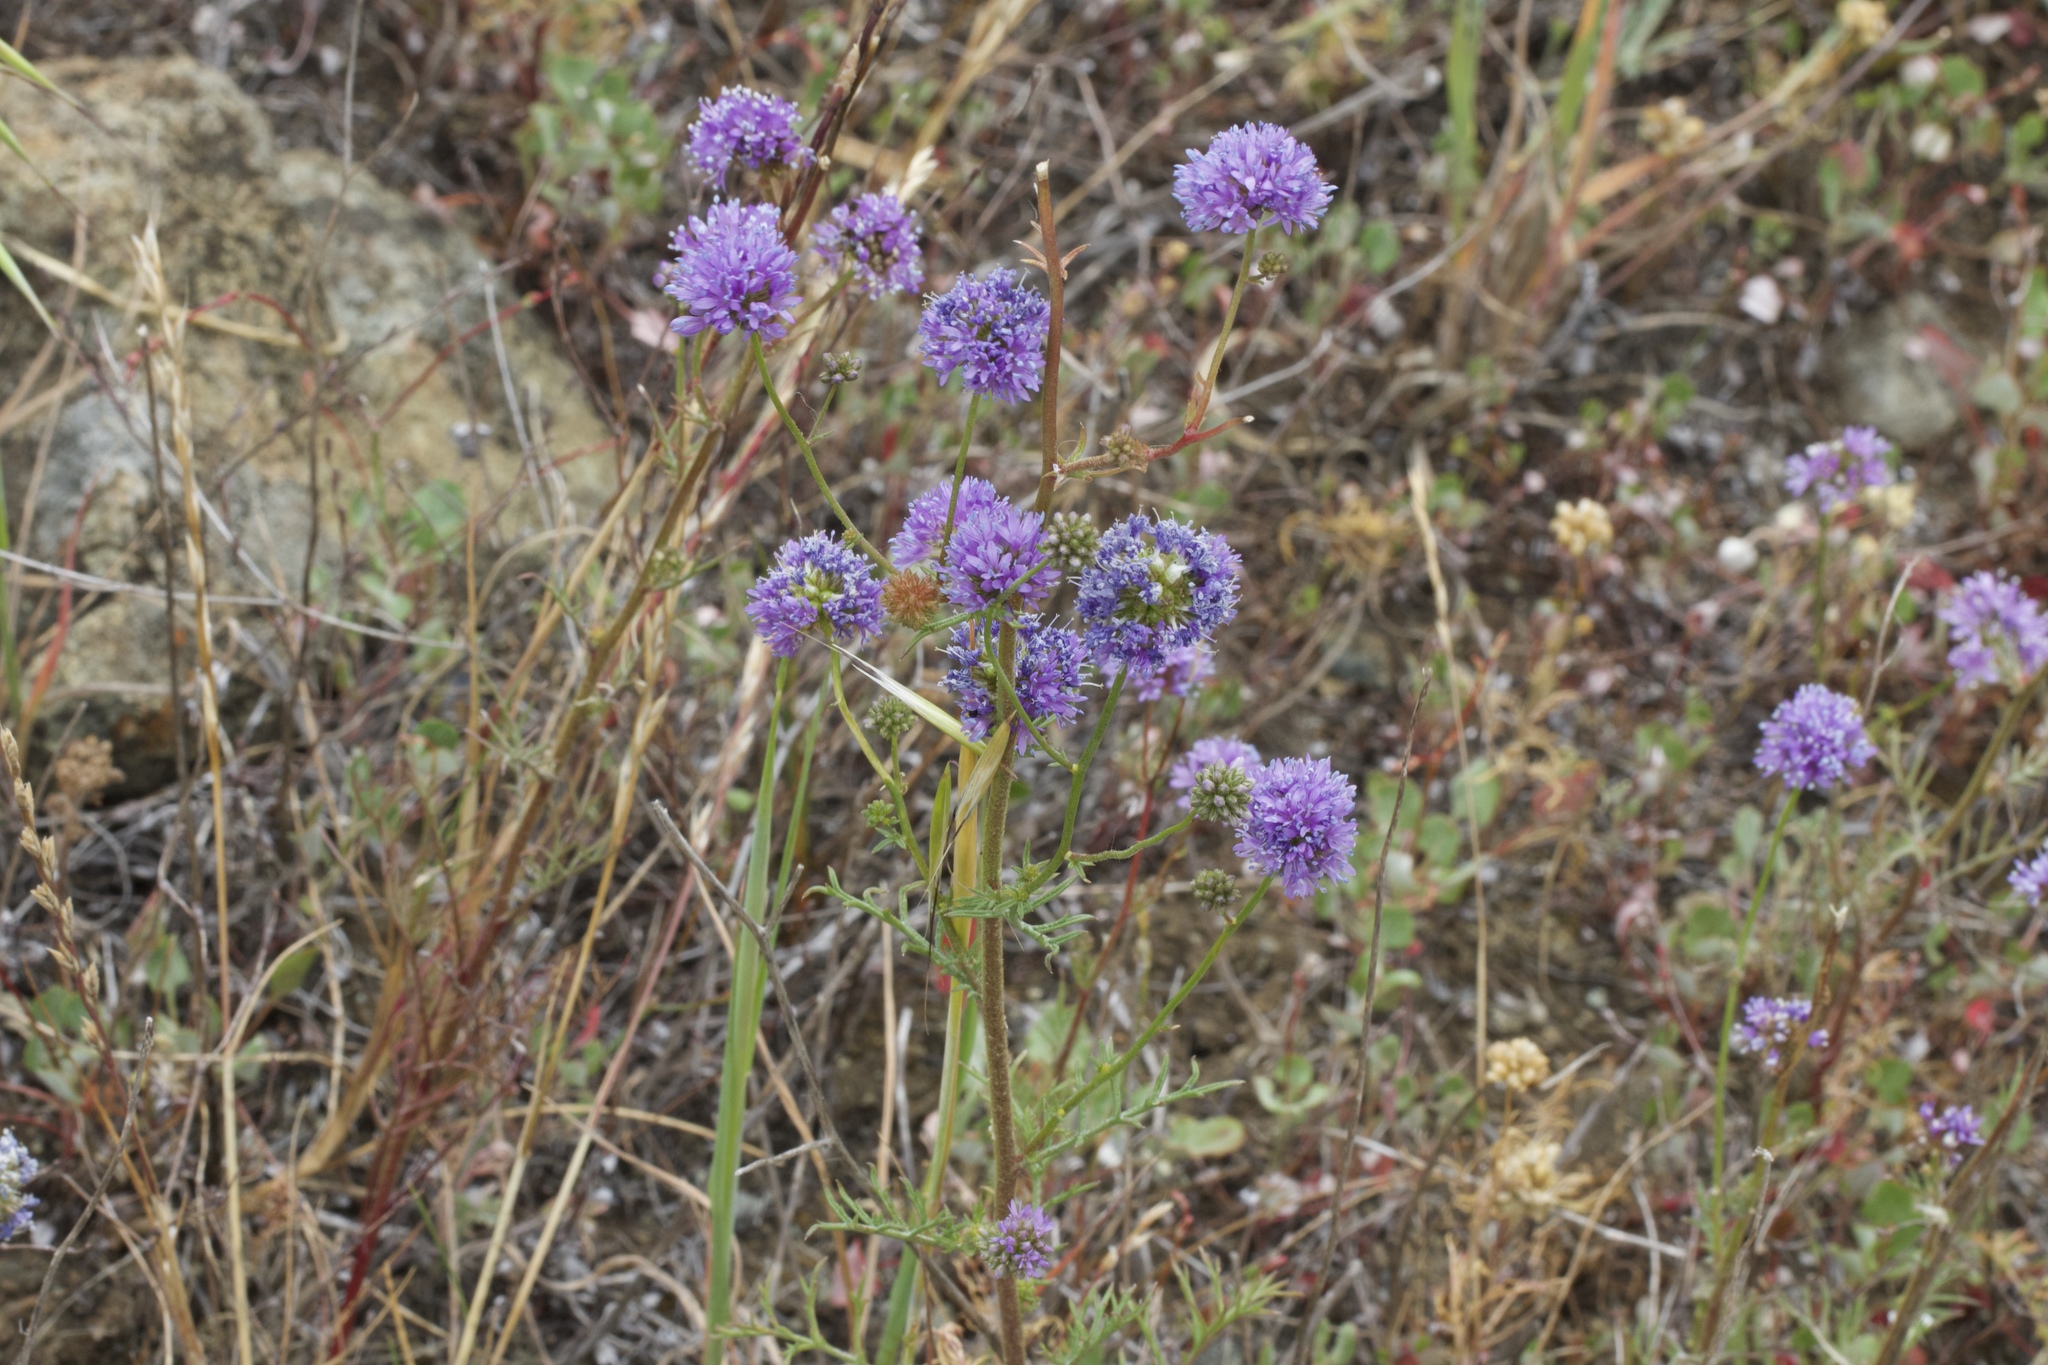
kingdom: Plantae
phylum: Tracheophyta
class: Magnoliopsida
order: Ericales
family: Polemoniaceae
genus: Gilia
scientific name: Gilia capitata
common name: Bluehead gilia
